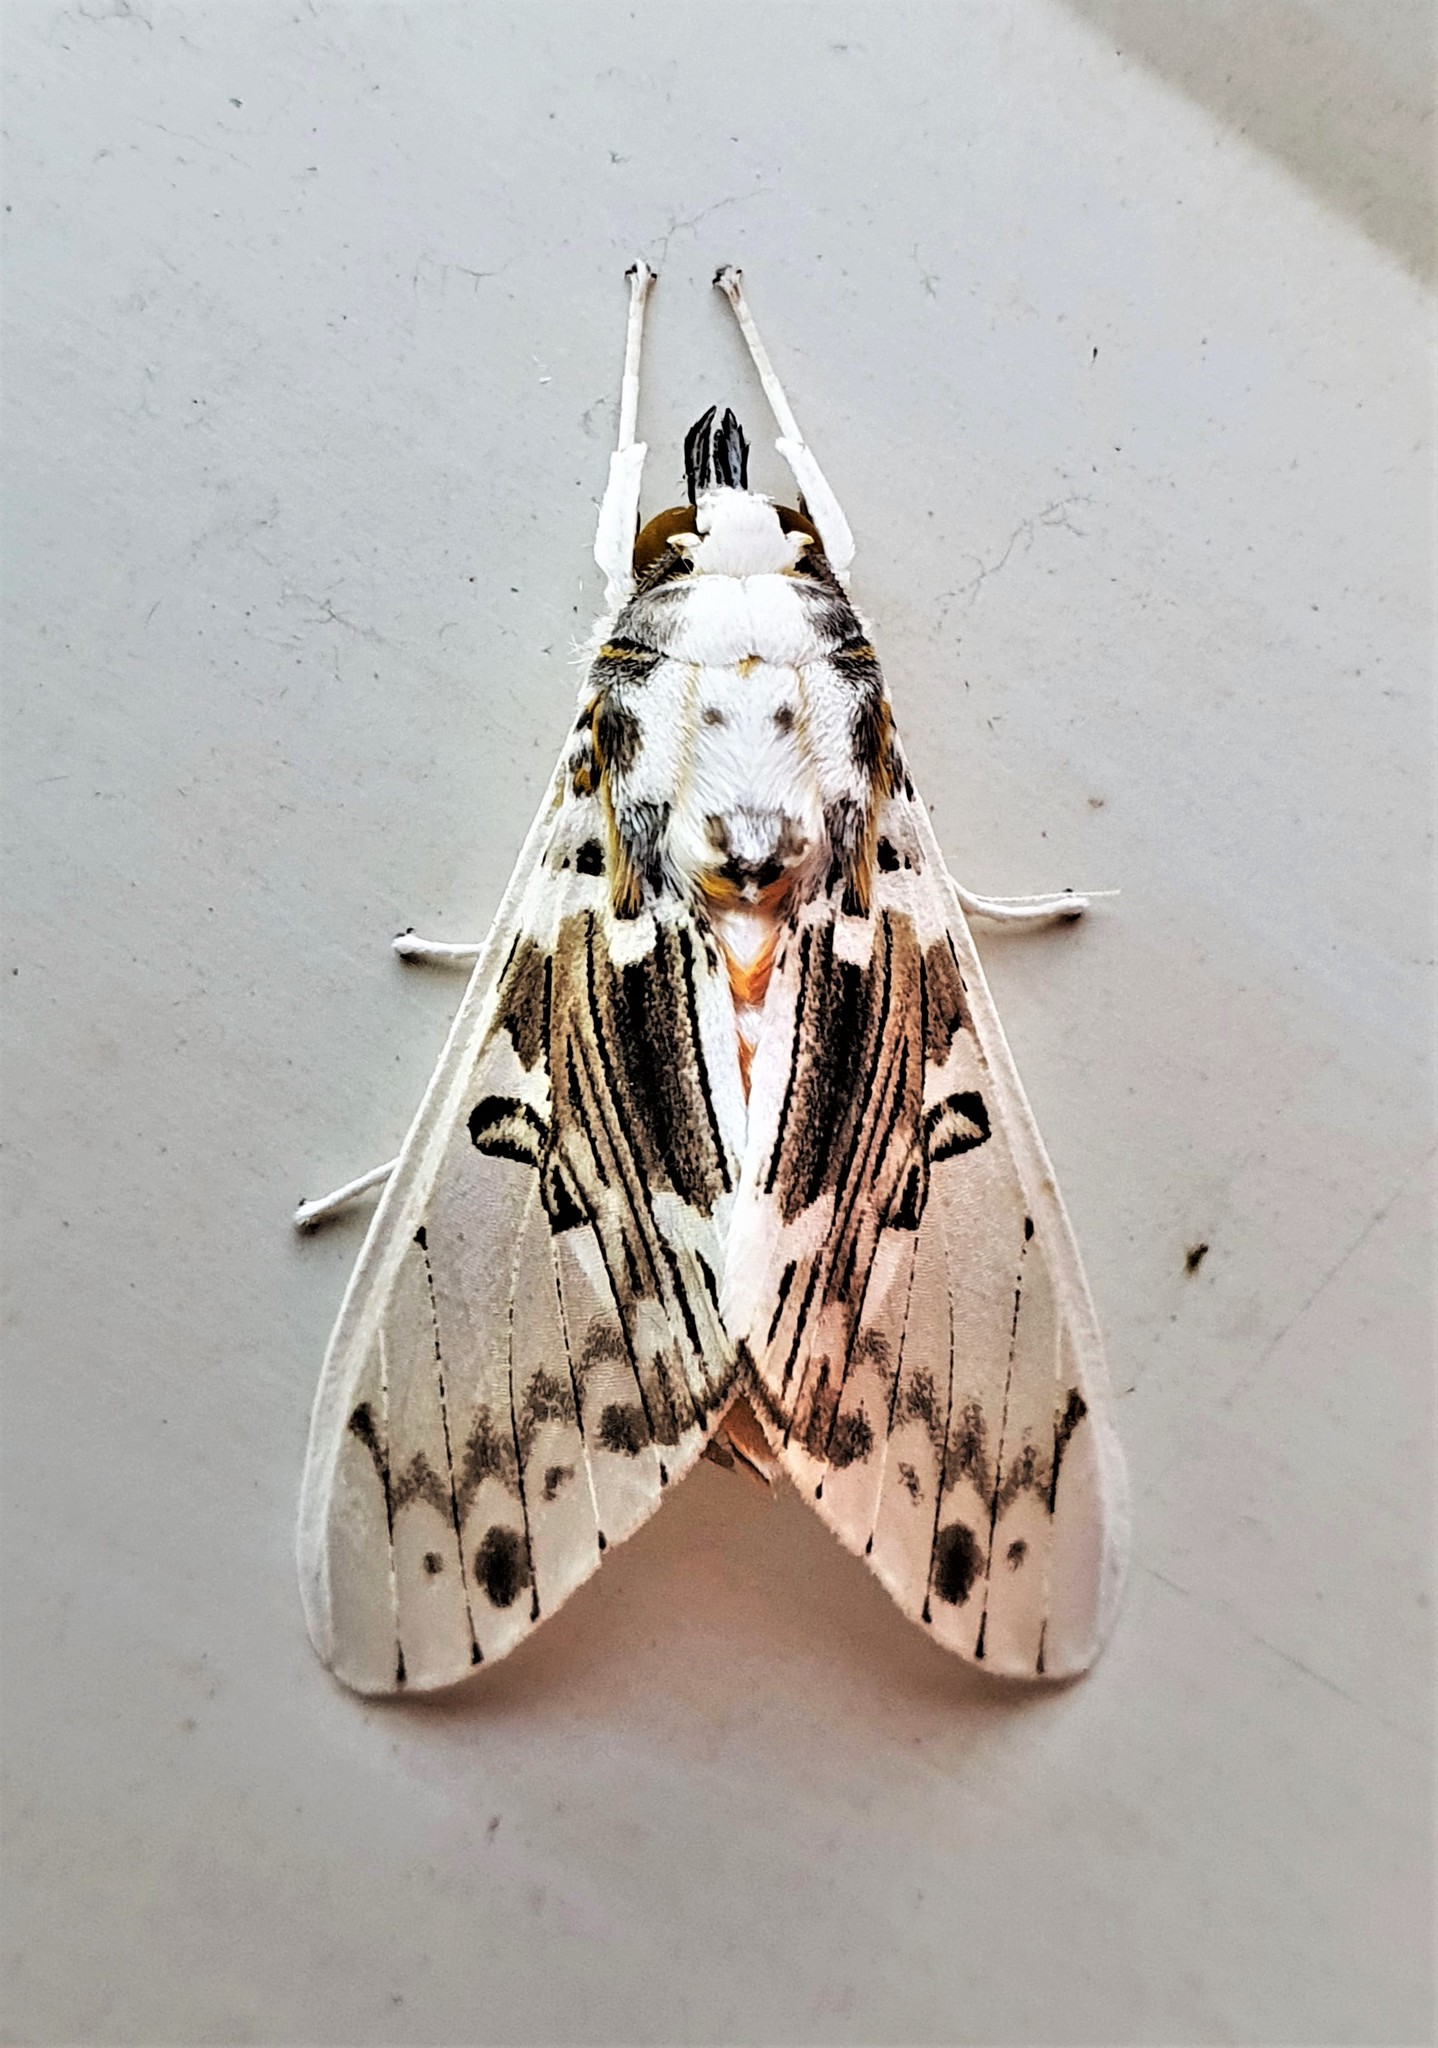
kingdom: Animalia
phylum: Arthropoda
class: Insecta
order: Lepidoptera
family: Erebidae
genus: Idalus
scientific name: Idalus intermedia
